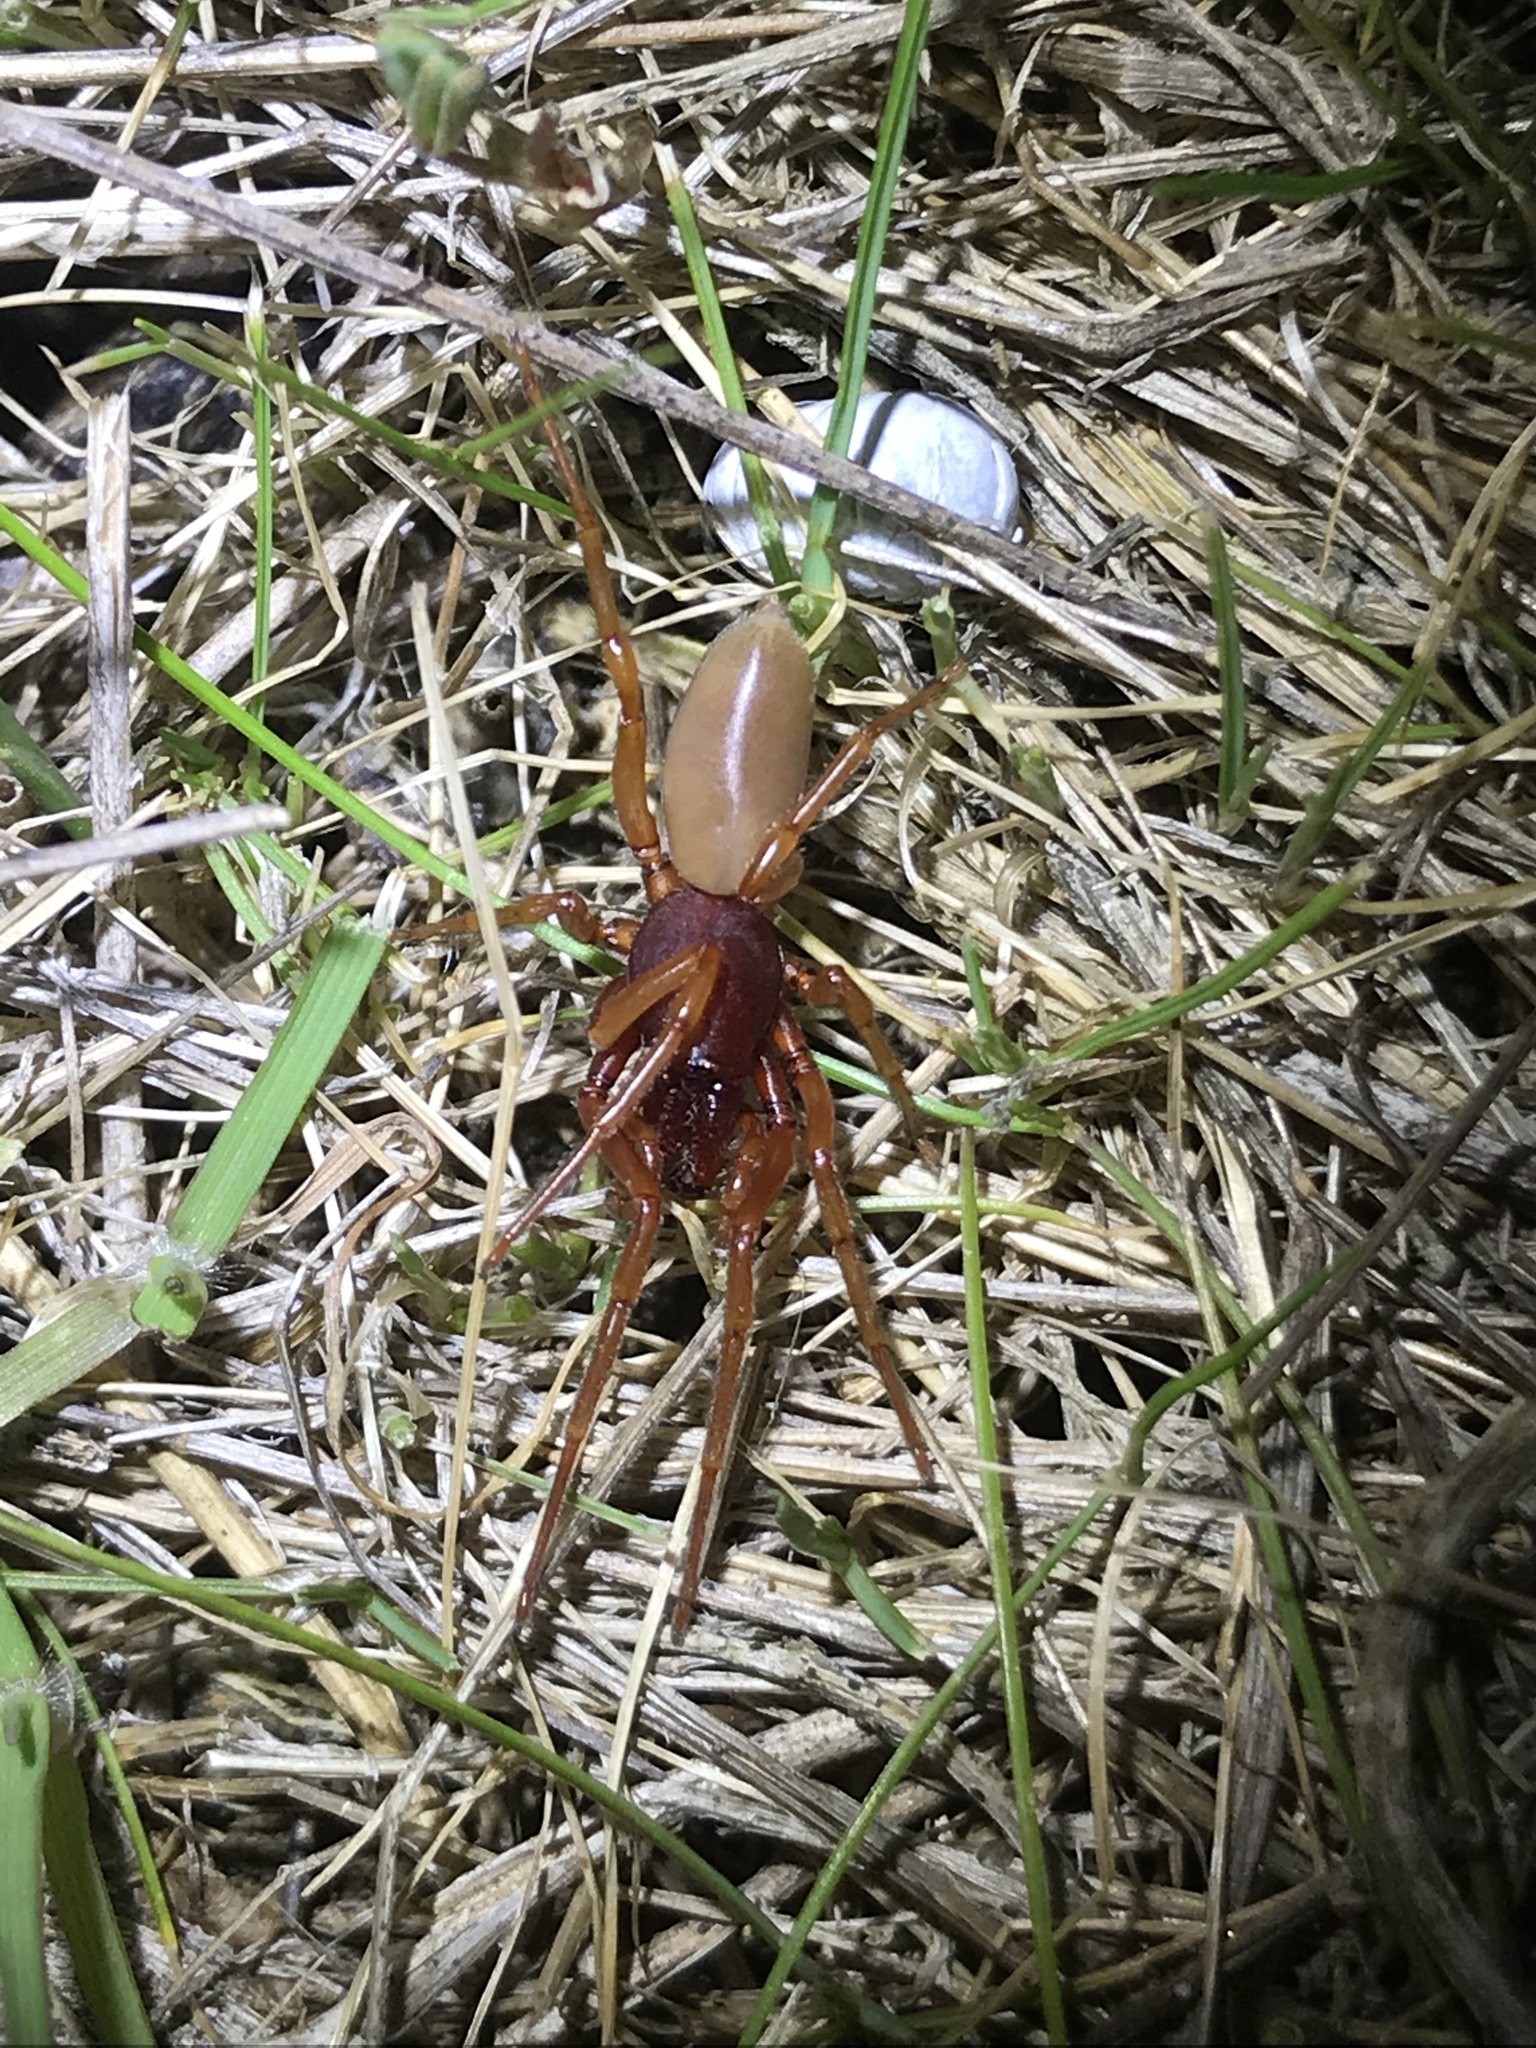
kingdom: Animalia
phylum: Arthropoda
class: Arachnida
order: Araneae
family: Dysderidae
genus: Dysdera
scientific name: Dysdera crocata
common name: Woodlouse spider
